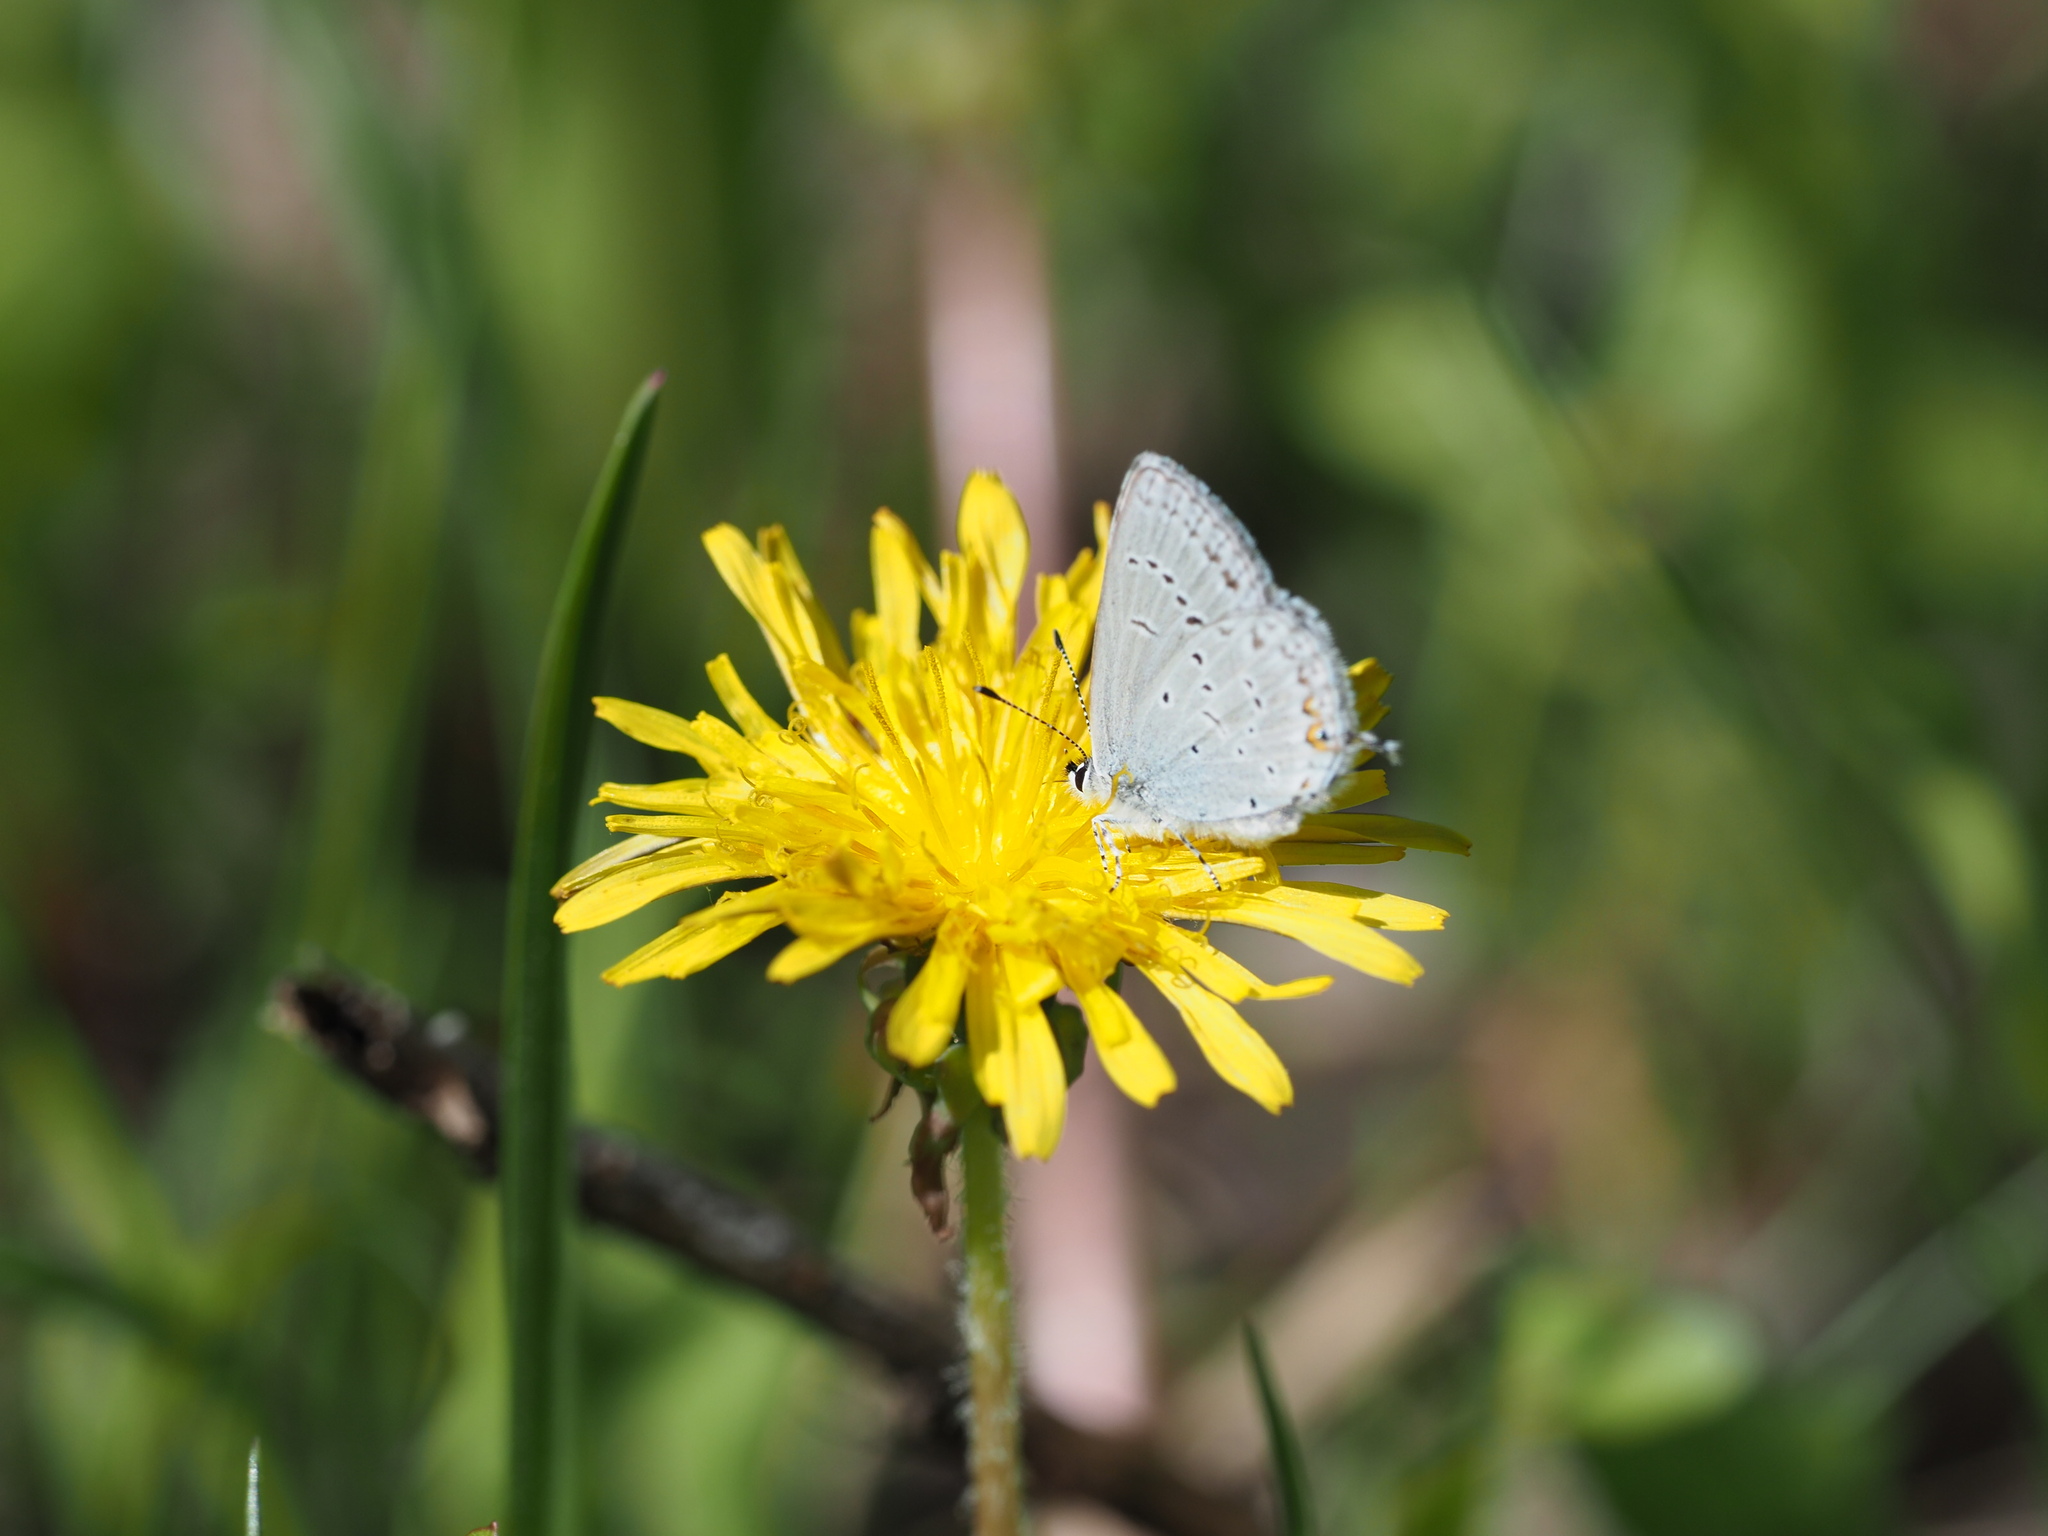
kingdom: Animalia
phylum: Arthropoda
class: Insecta
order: Lepidoptera
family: Lycaenidae
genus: Elkalyce
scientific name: Elkalyce amyntula
